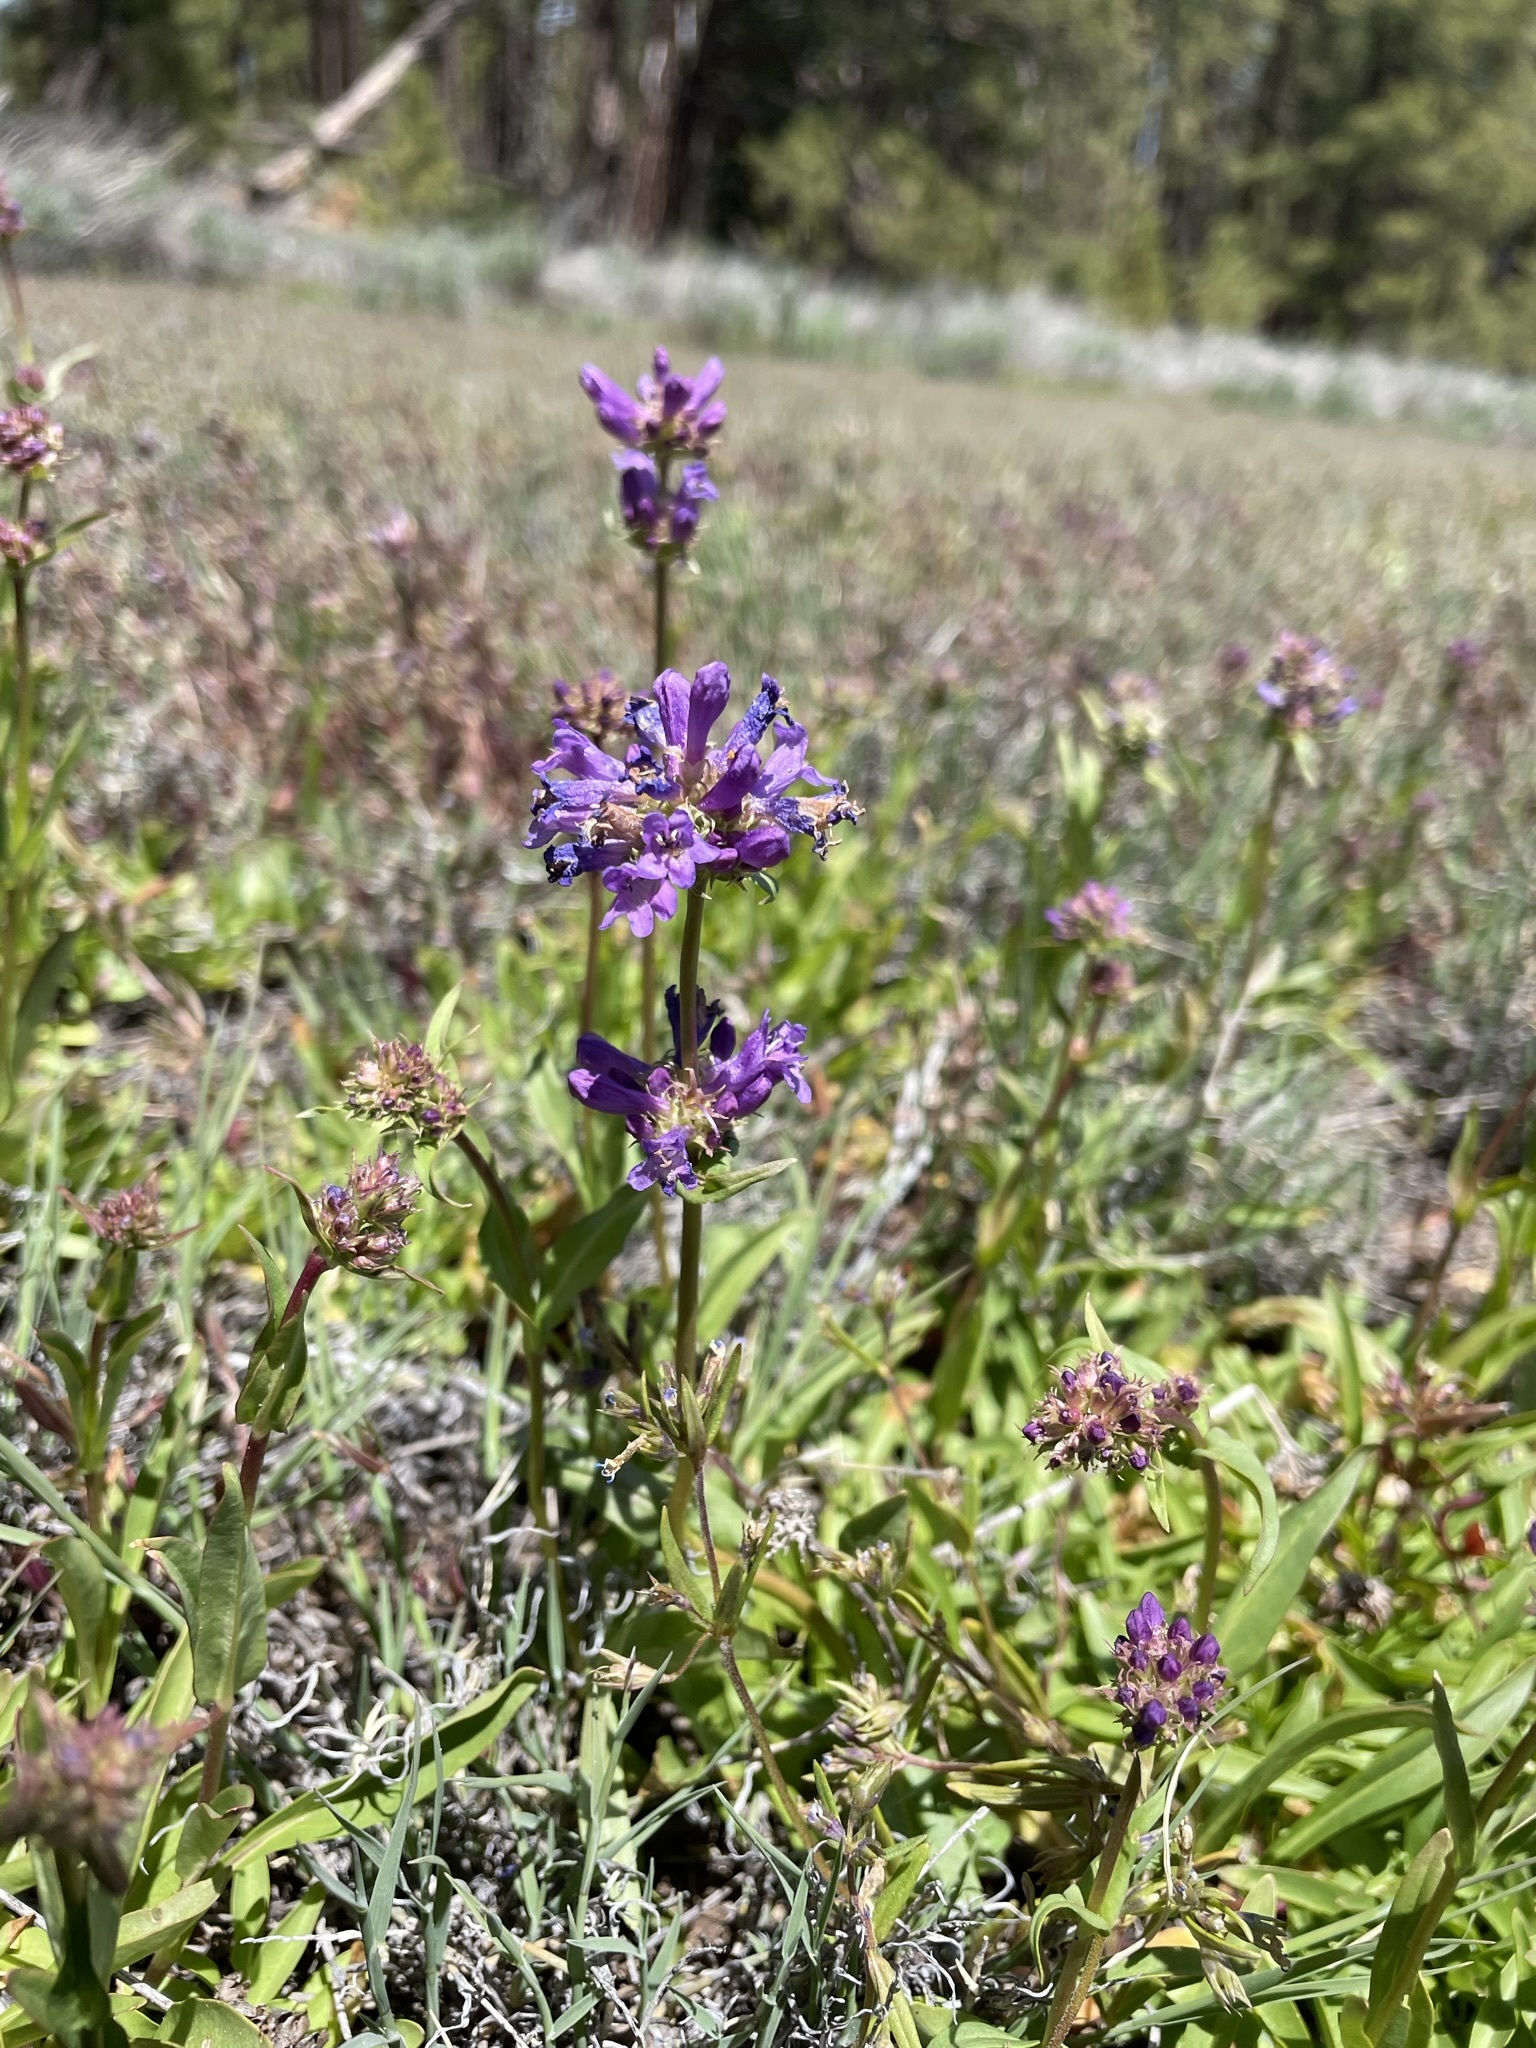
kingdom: Plantae
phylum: Tracheophyta
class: Magnoliopsida
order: Lamiales
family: Plantaginaceae
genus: Penstemon
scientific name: Penstemon rydbergii
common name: Rydberg's beardtongue
